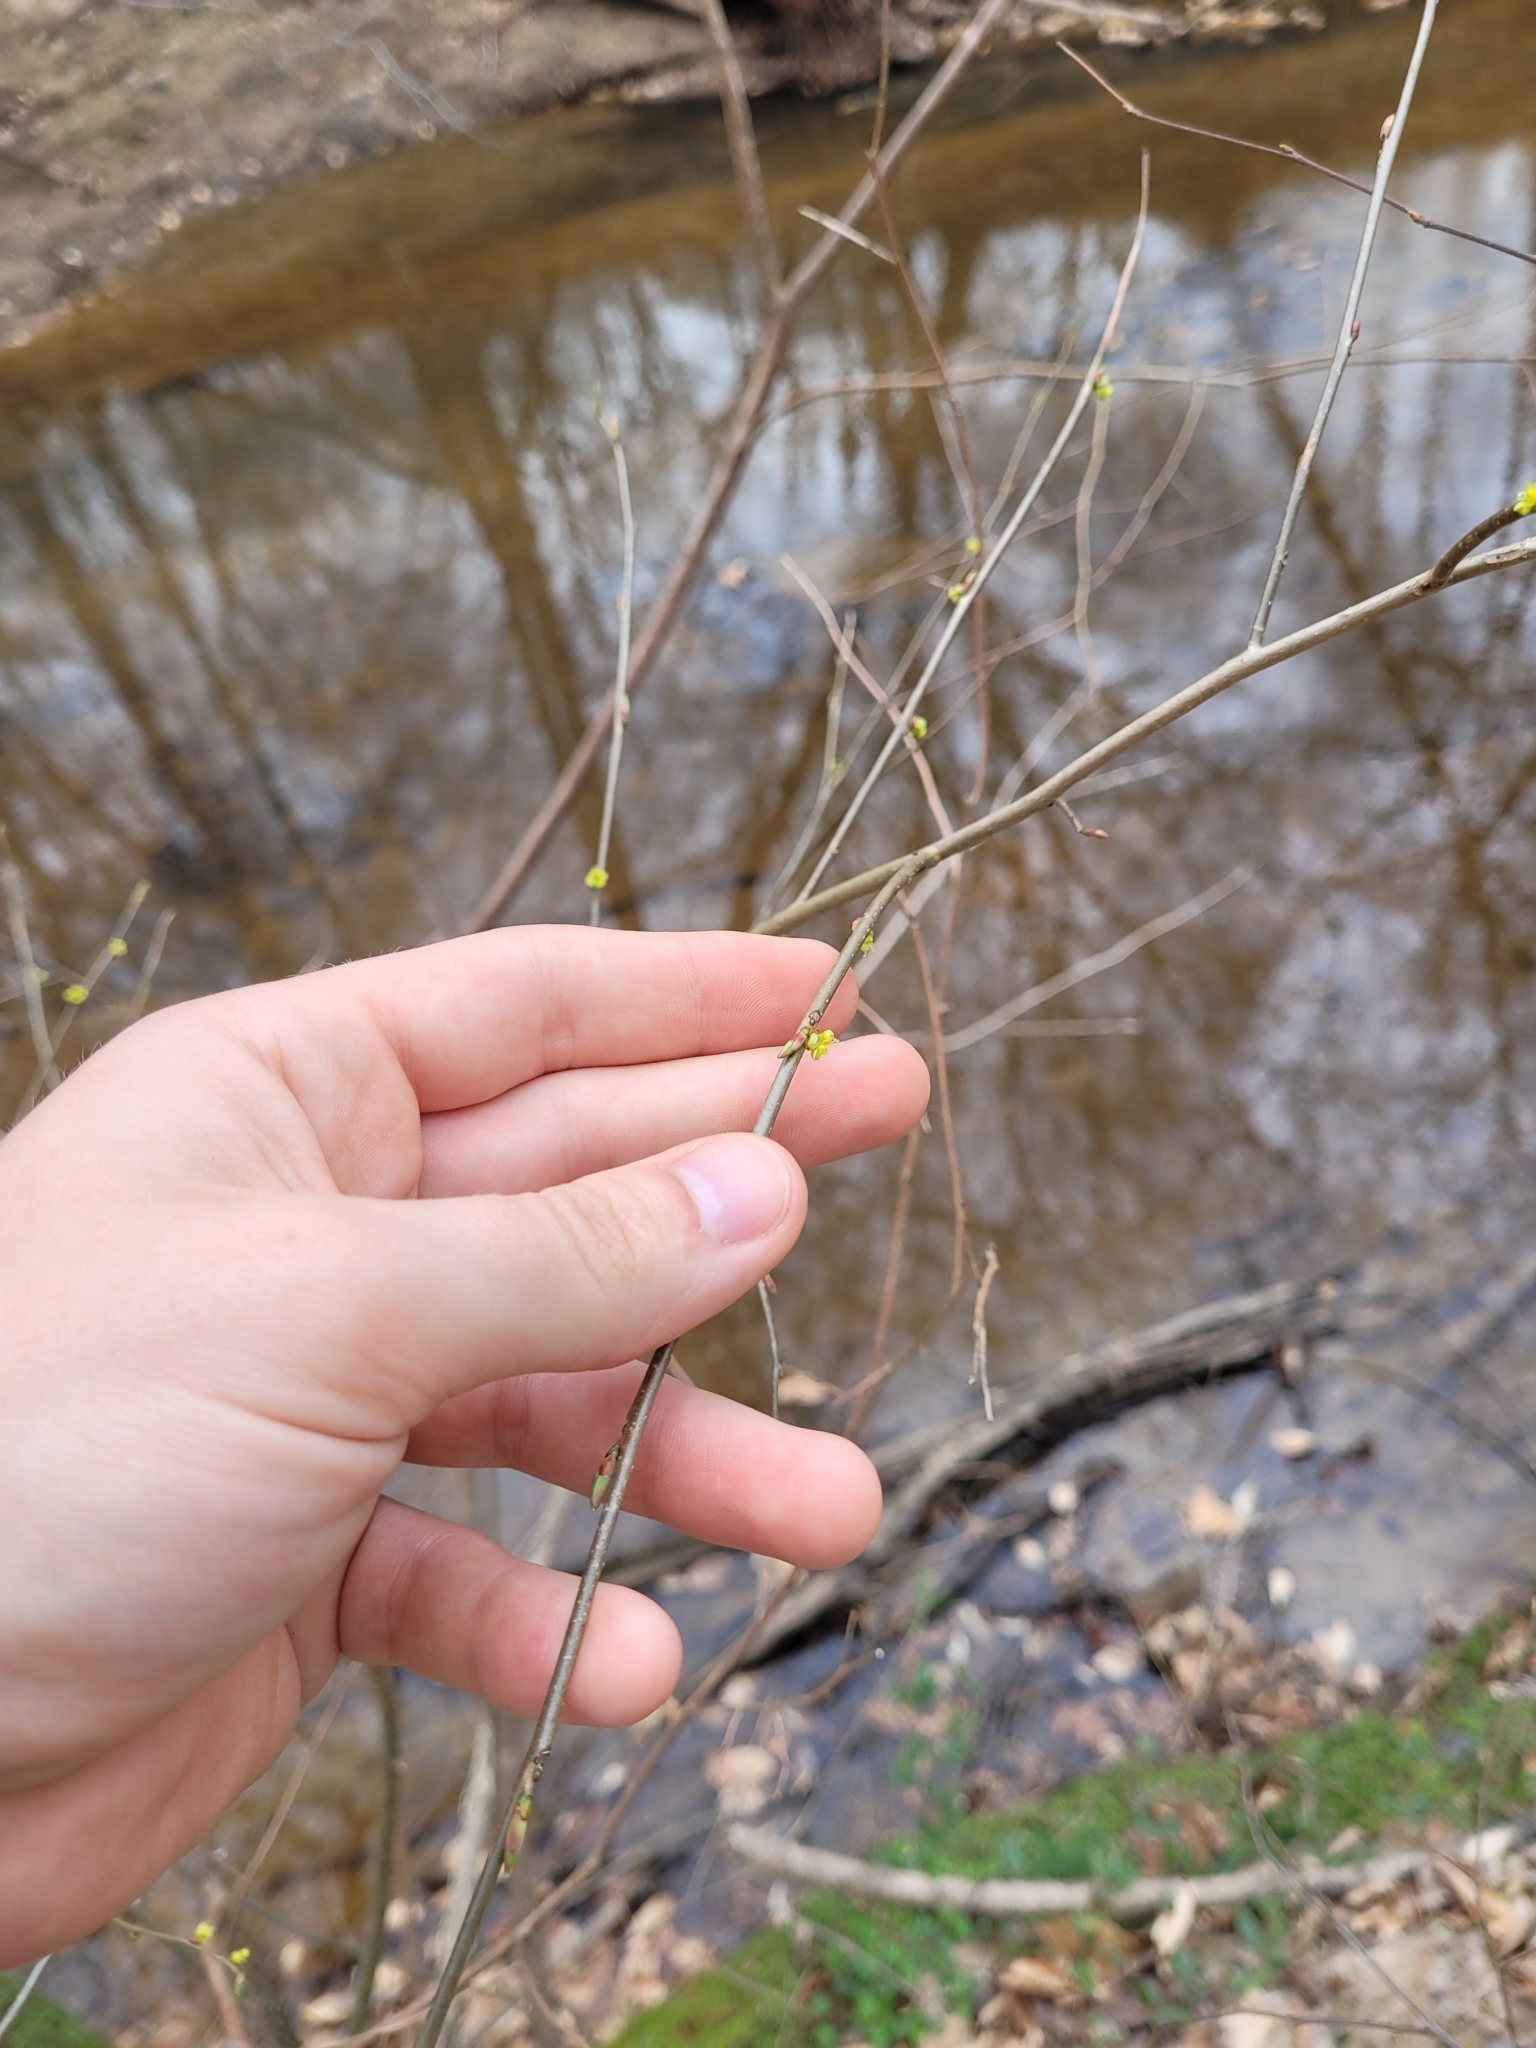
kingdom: Plantae
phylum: Tracheophyta
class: Magnoliopsida
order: Laurales
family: Lauraceae
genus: Lindera
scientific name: Lindera benzoin
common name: Spicebush
